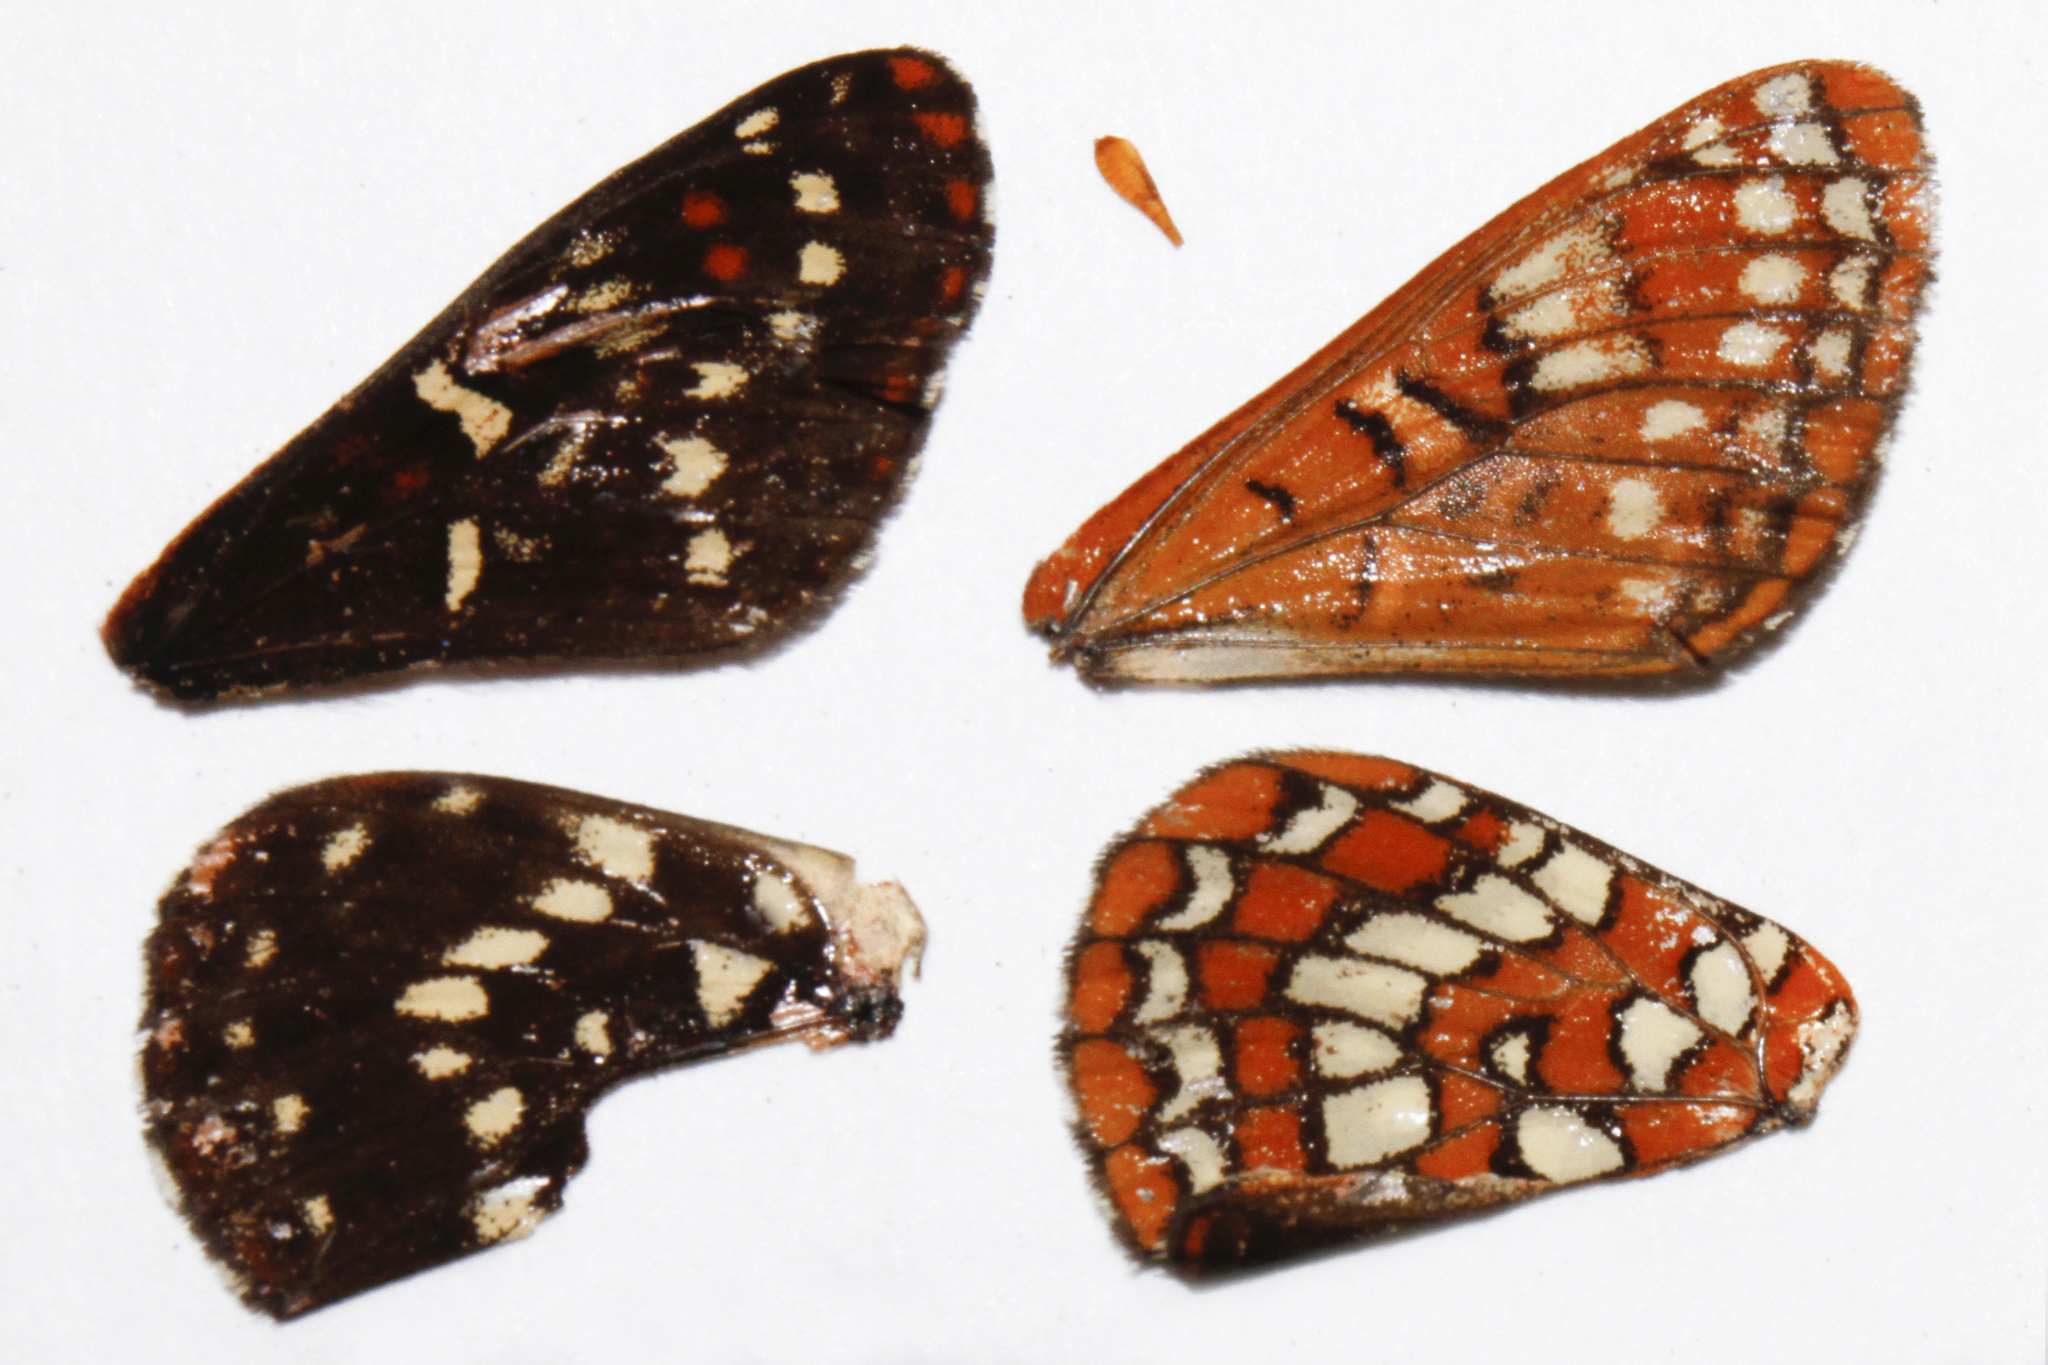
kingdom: Animalia
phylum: Arthropoda
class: Insecta
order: Lepidoptera
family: Nymphalidae
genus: Occidryas
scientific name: Occidryas colon
